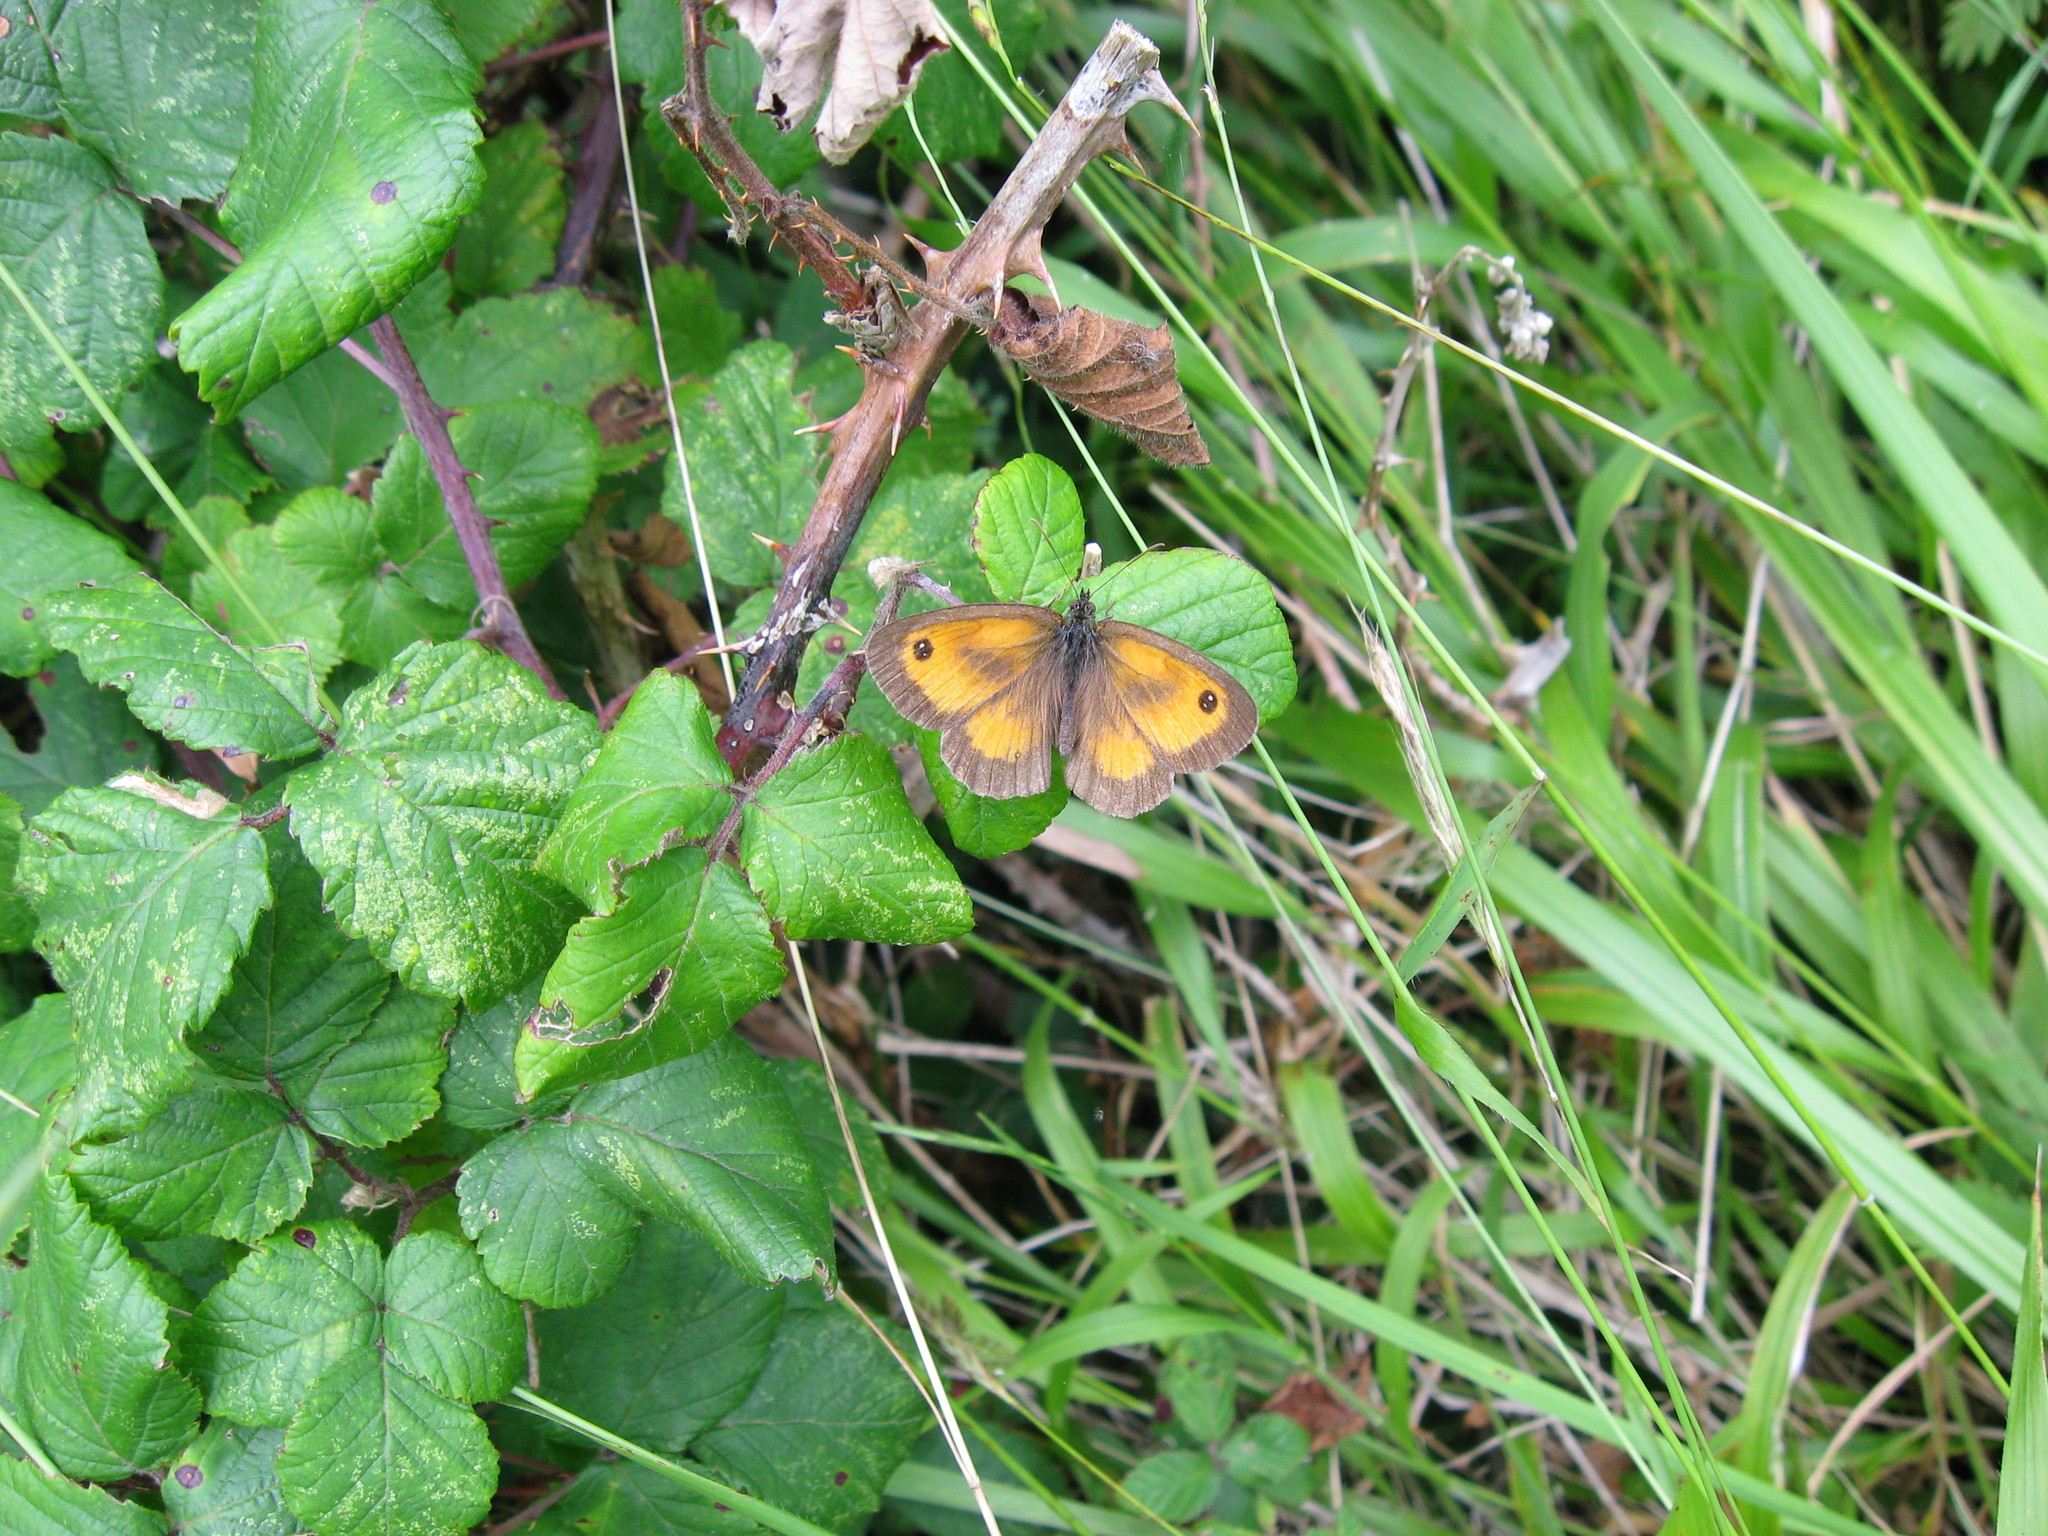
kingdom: Animalia
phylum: Arthropoda
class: Insecta
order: Lepidoptera
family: Nymphalidae
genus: Pyronia
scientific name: Pyronia tithonus
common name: Gatekeeper
